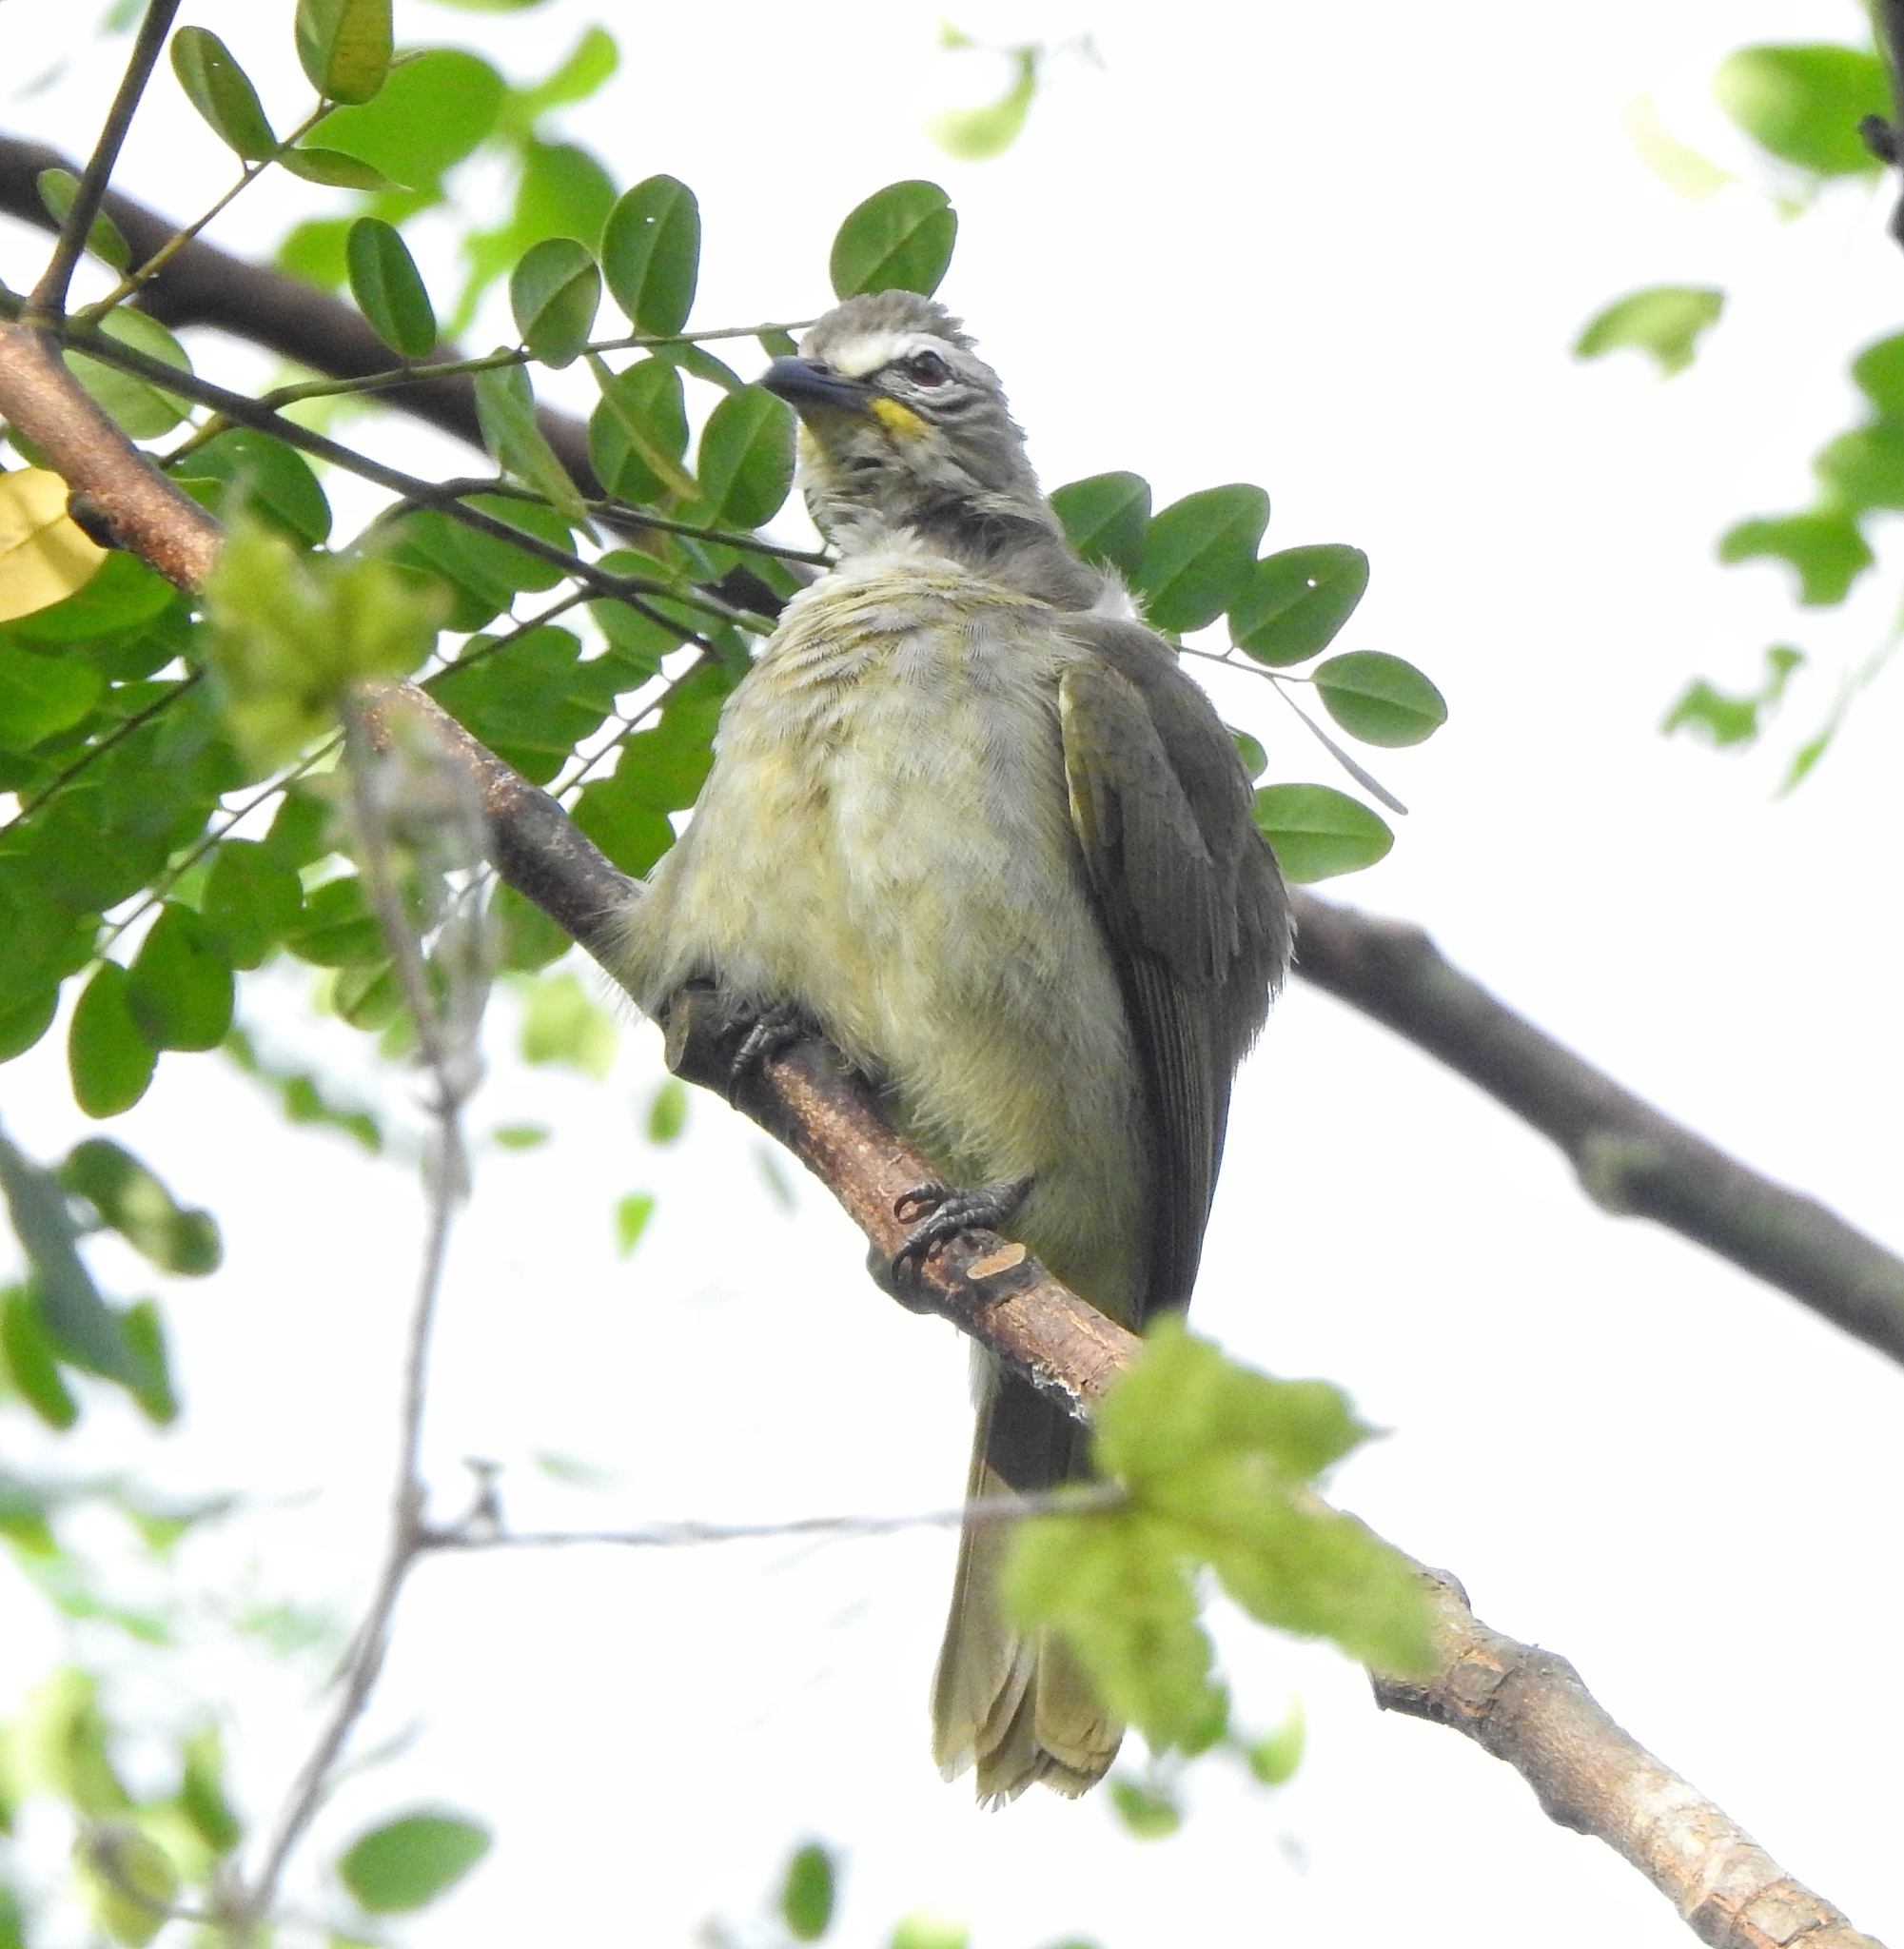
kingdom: Animalia
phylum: Chordata
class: Aves
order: Passeriformes
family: Pycnonotidae
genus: Pycnonotus
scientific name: Pycnonotus luteolus
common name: White-browed bulbul
